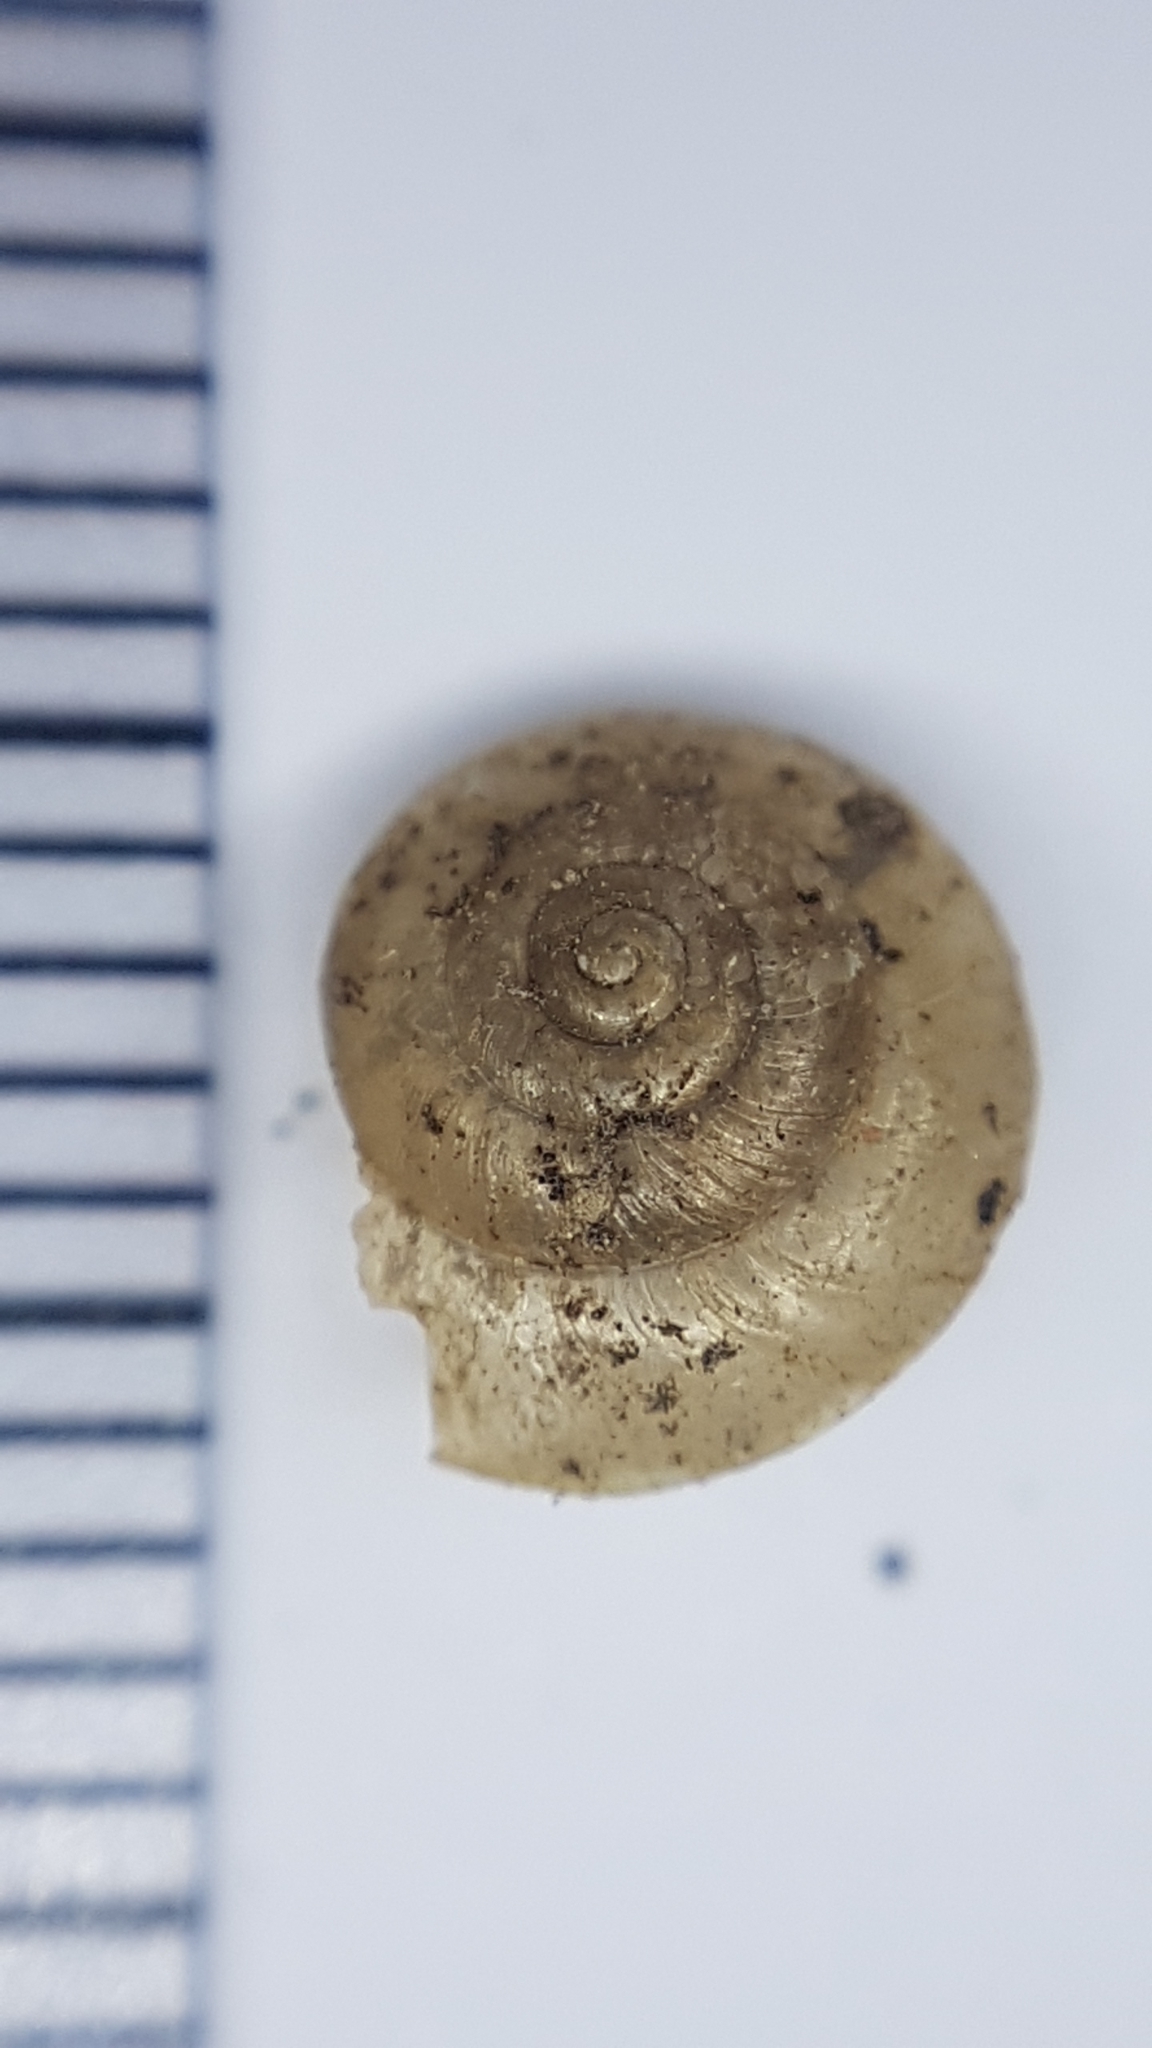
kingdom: Animalia
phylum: Mollusca
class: Gastropoda
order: Stylommatophora
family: Hygromiidae
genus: Hygromia
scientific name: Hygromia cinctella
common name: Girdled snail
